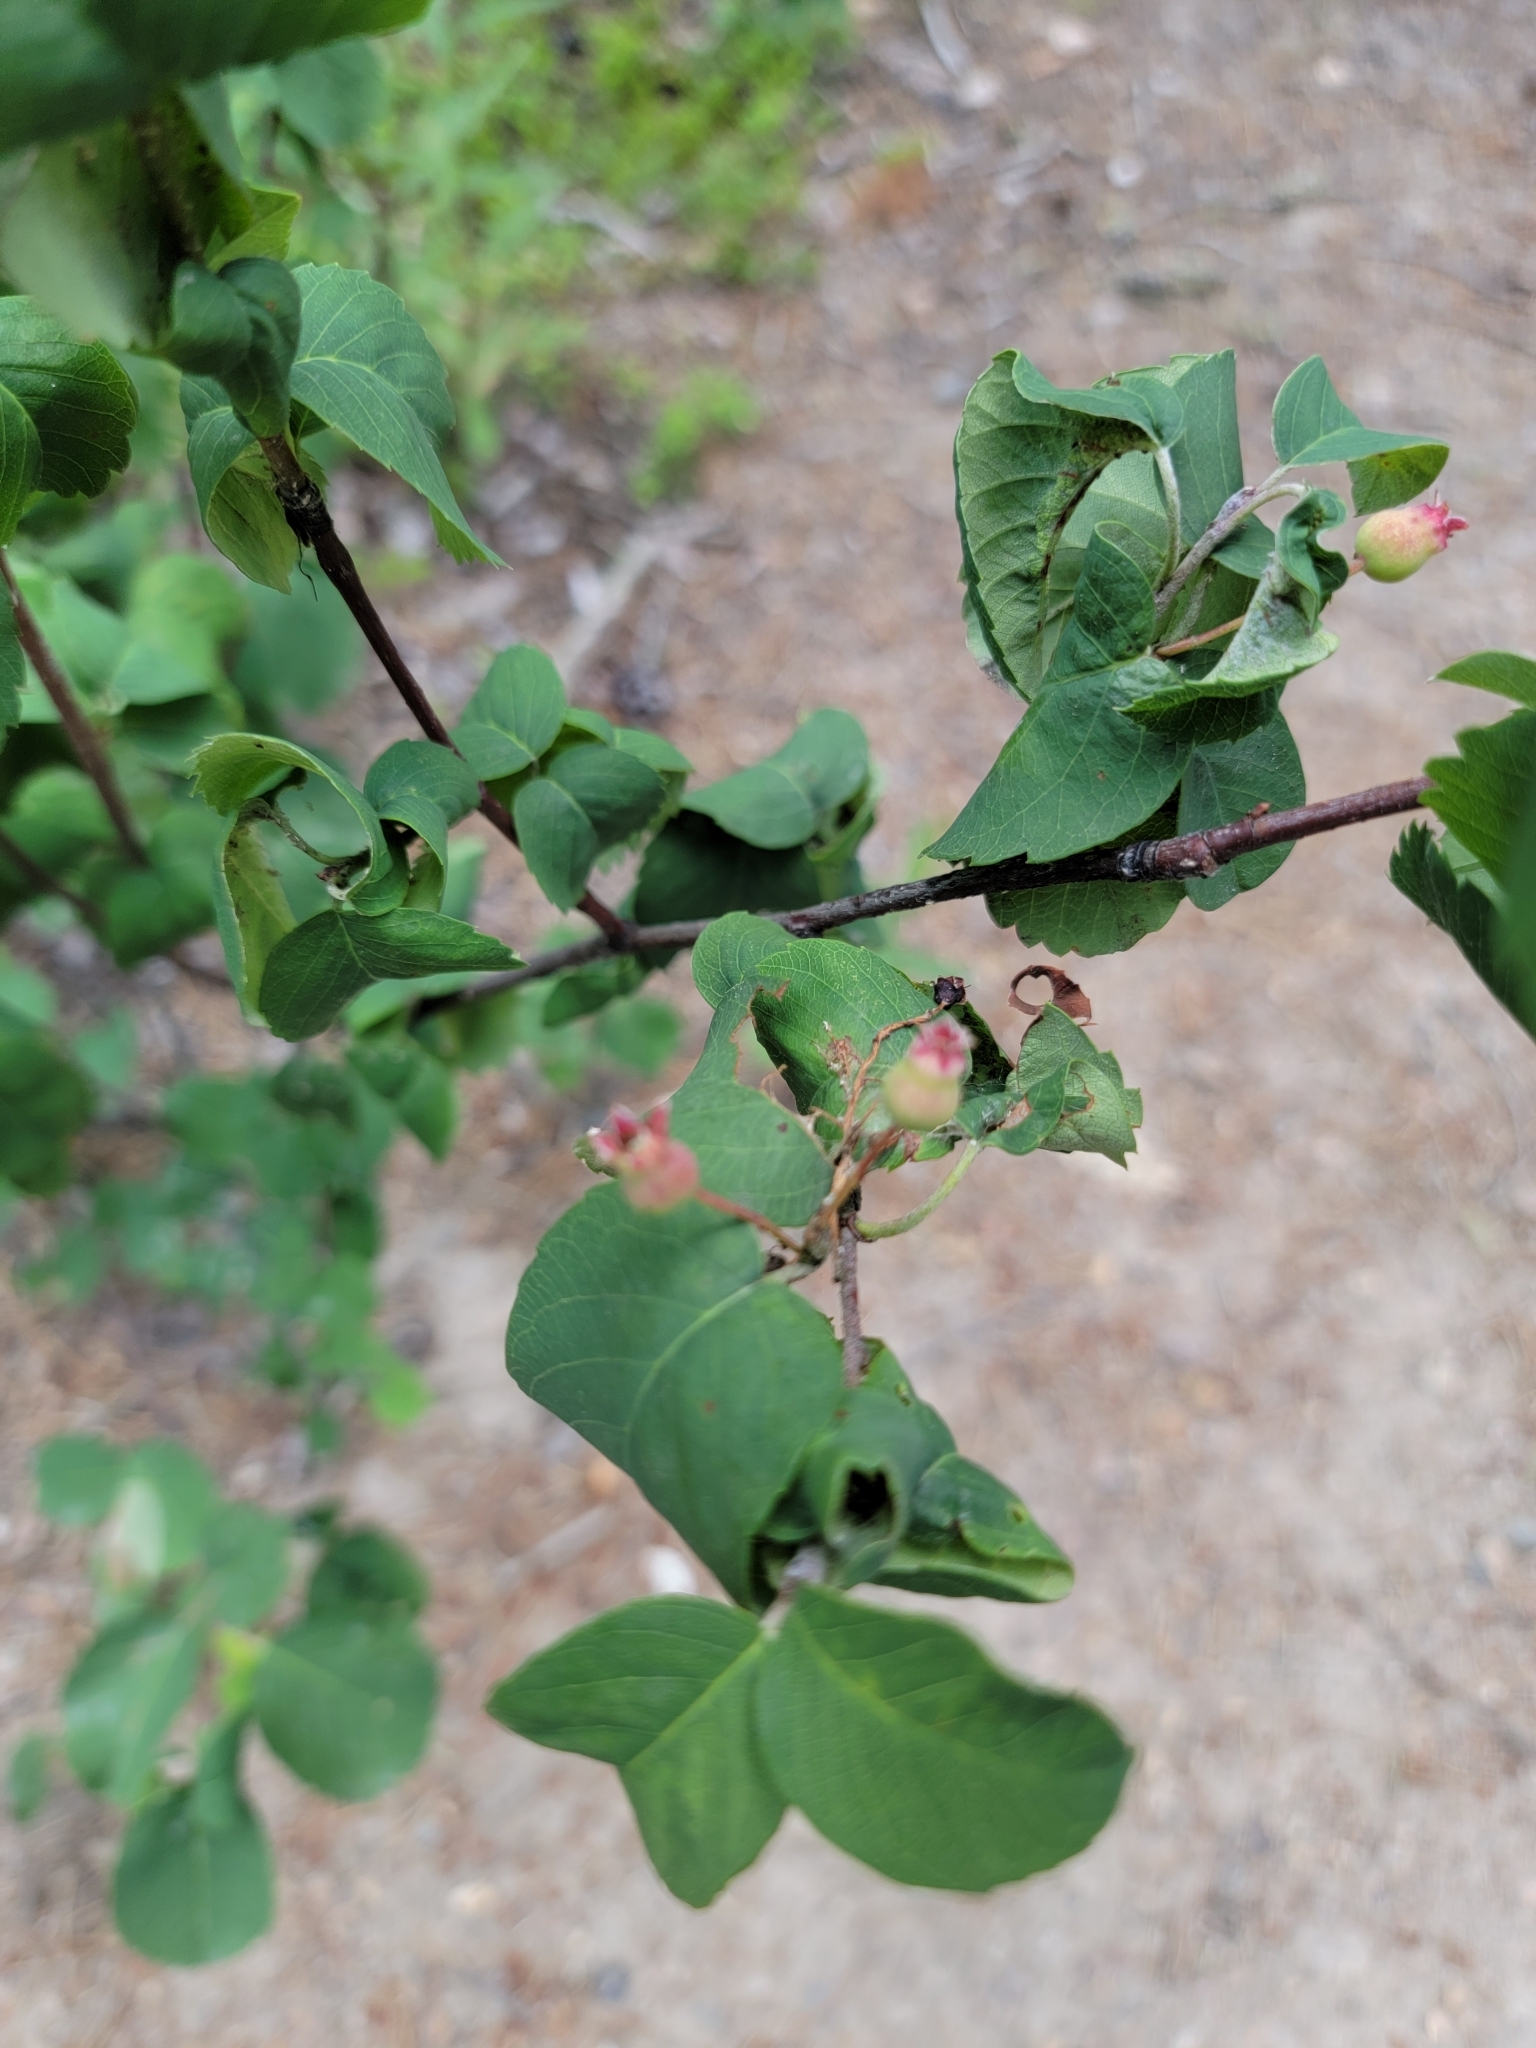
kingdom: Plantae
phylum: Tracheophyta
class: Magnoliopsida
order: Rosales
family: Rosaceae
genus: Amelanchier
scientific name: Amelanchier alnifolia
